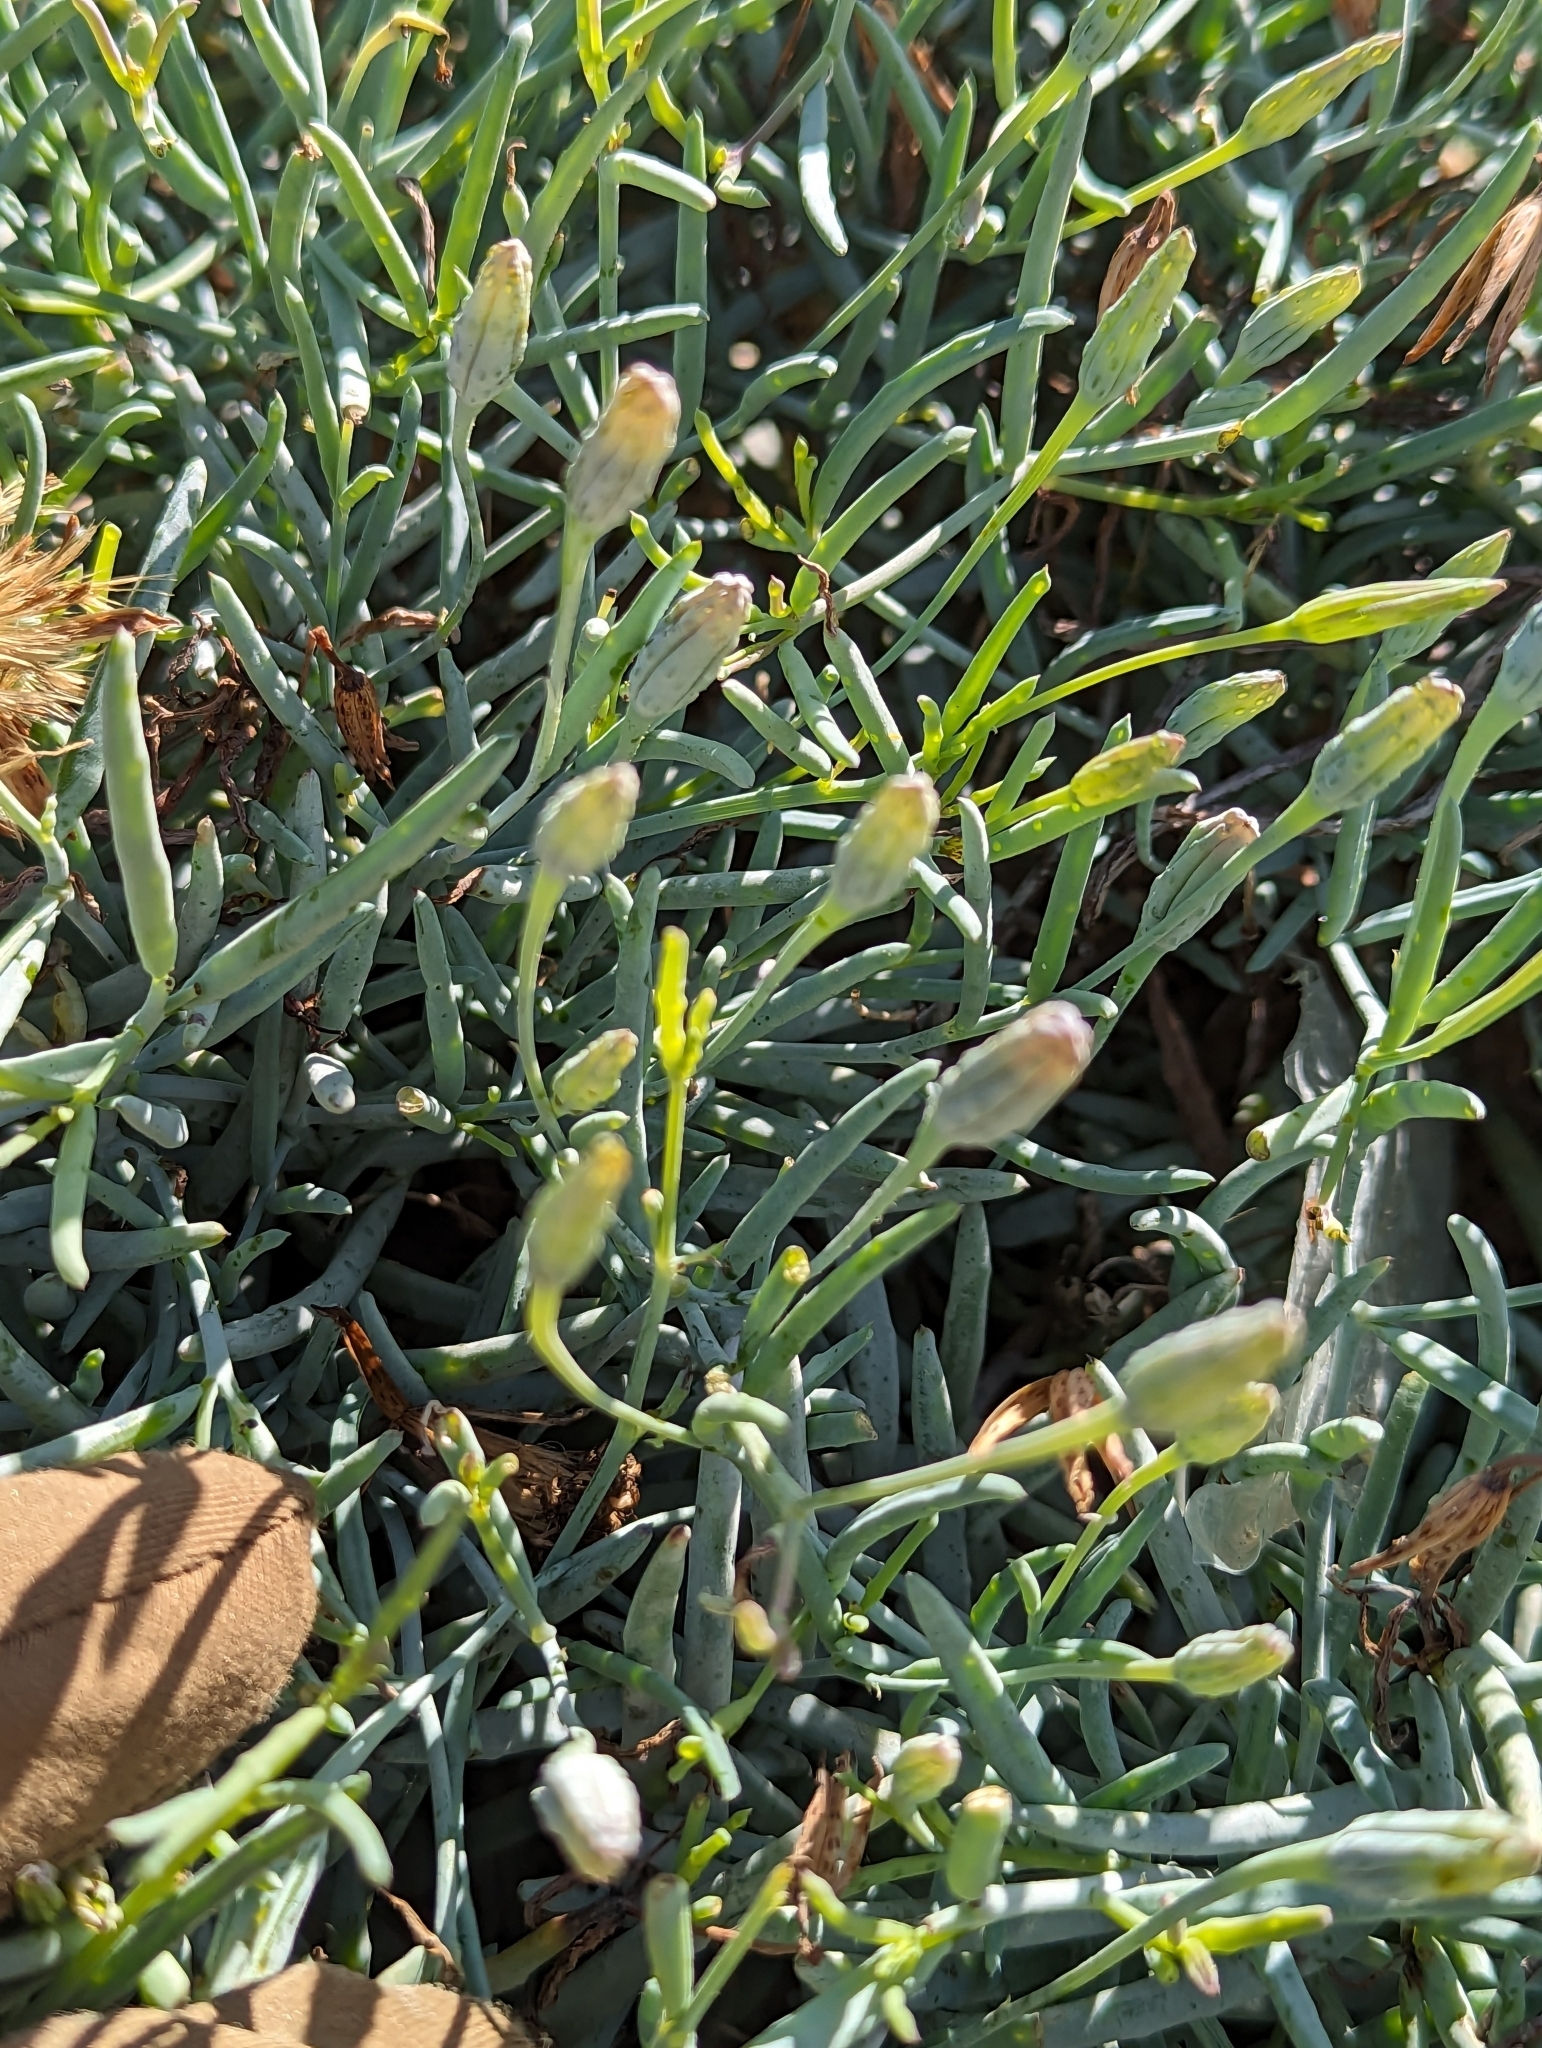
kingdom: Plantae
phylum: Tracheophyta
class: Magnoliopsida
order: Asterales
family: Asteraceae
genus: Porophyllum
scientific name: Porophyllum maritimum
